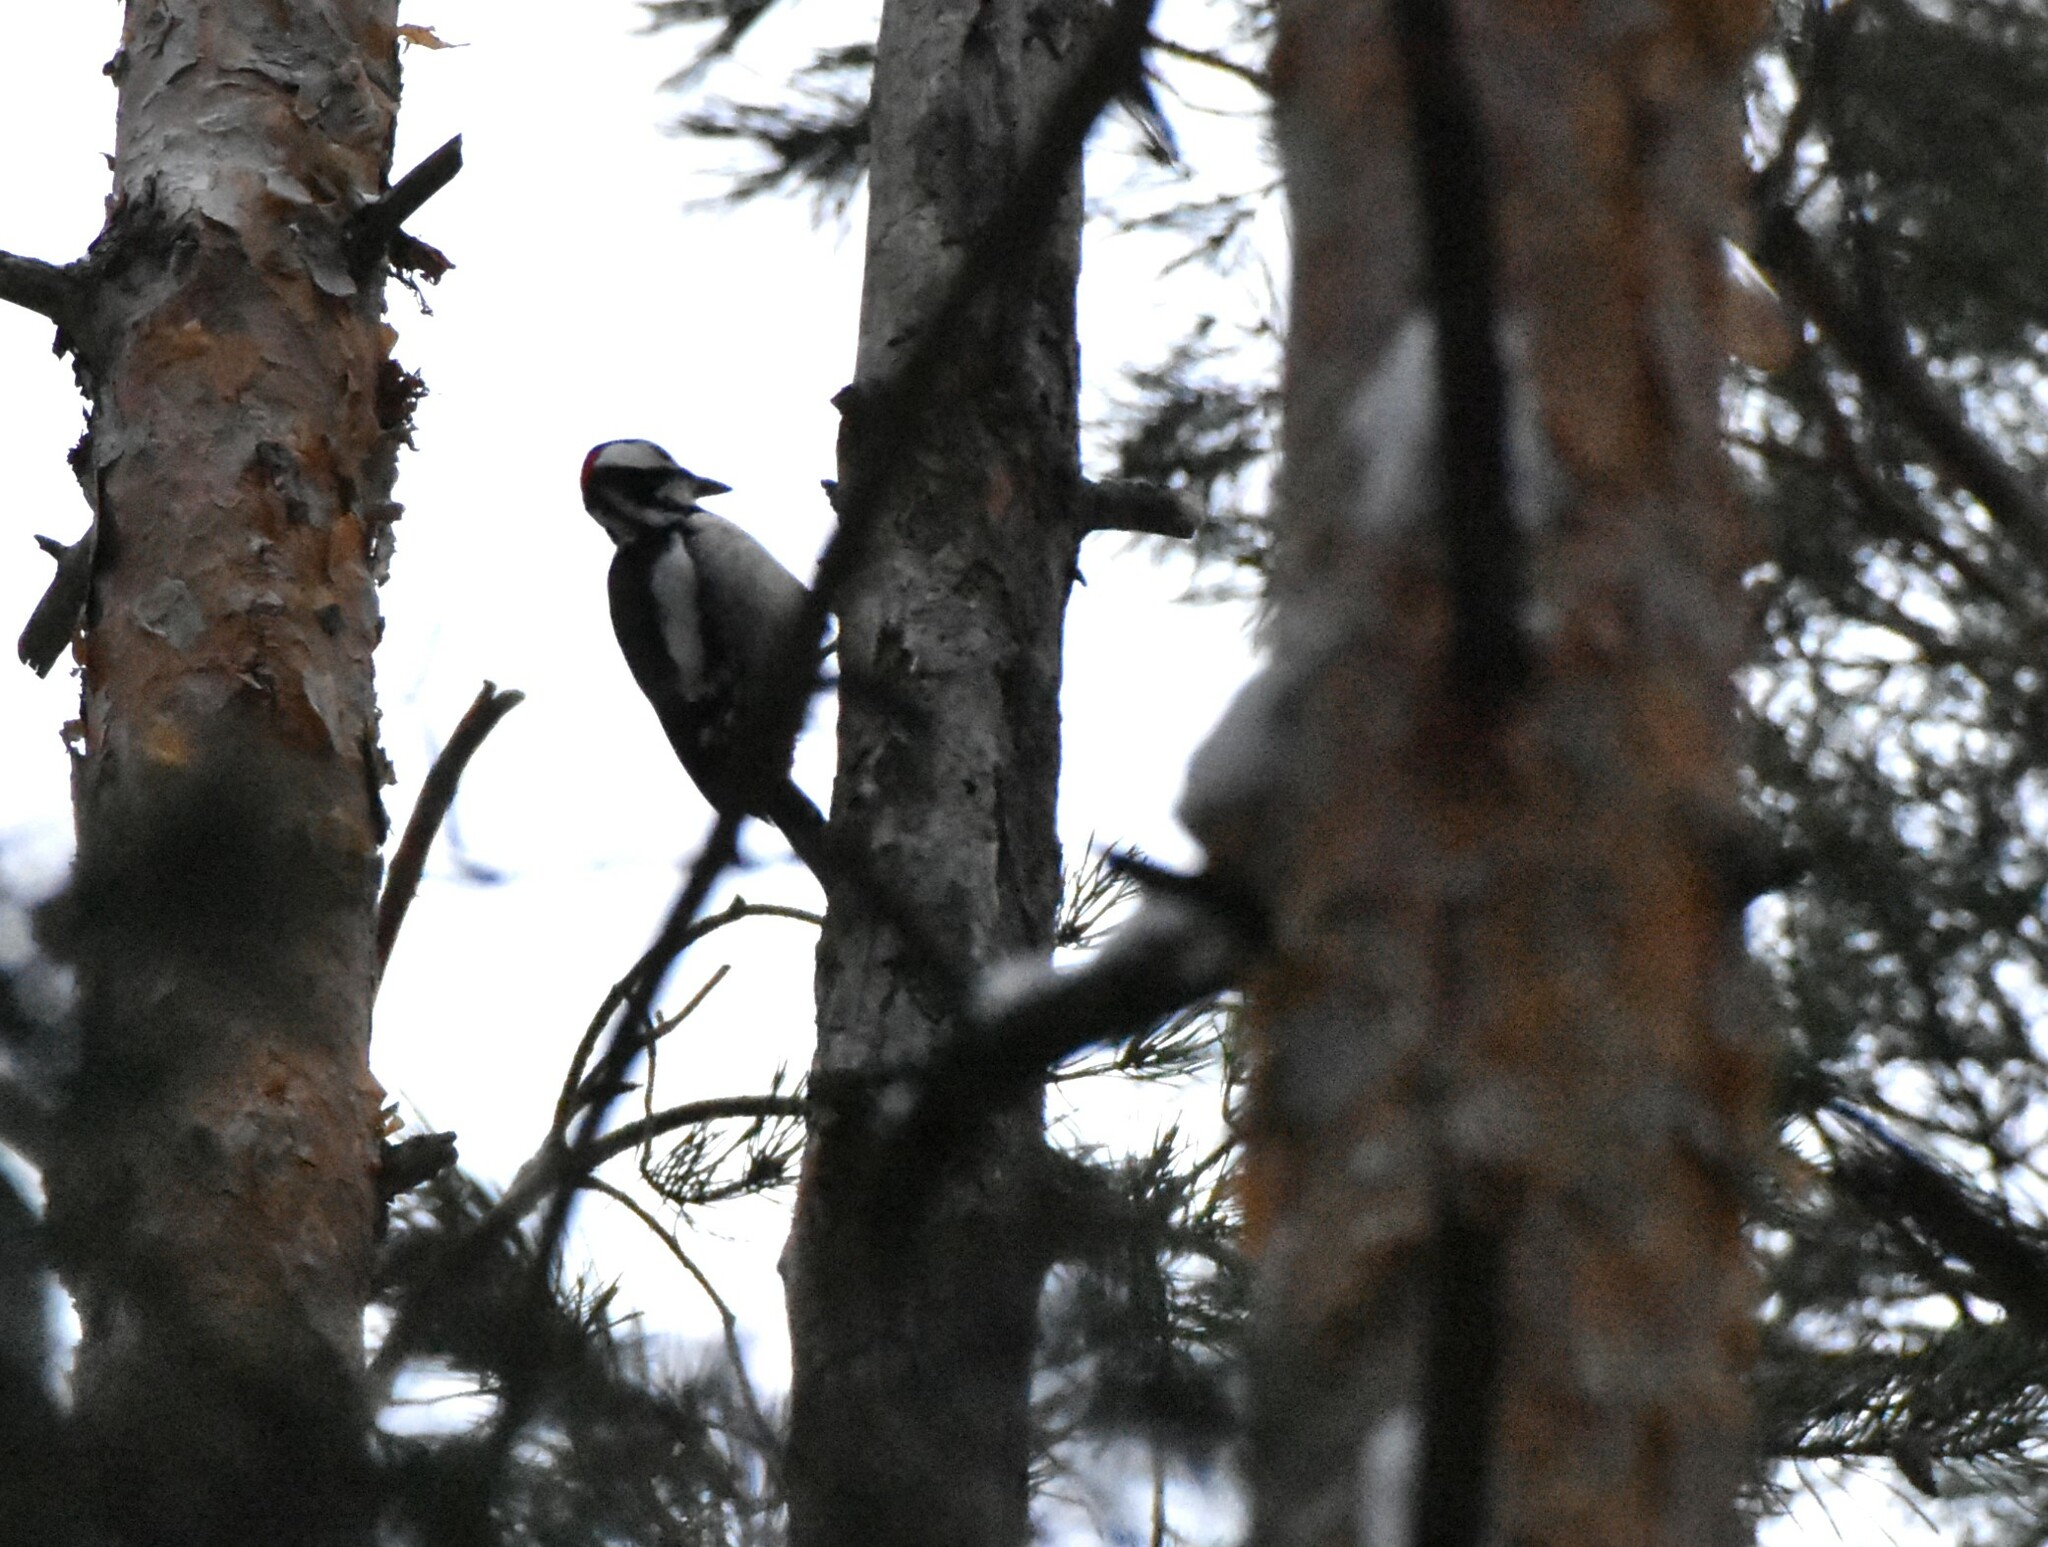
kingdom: Animalia
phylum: Chordata
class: Aves
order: Piciformes
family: Picidae
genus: Dendrocopos
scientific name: Dendrocopos major
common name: Great spotted woodpecker
